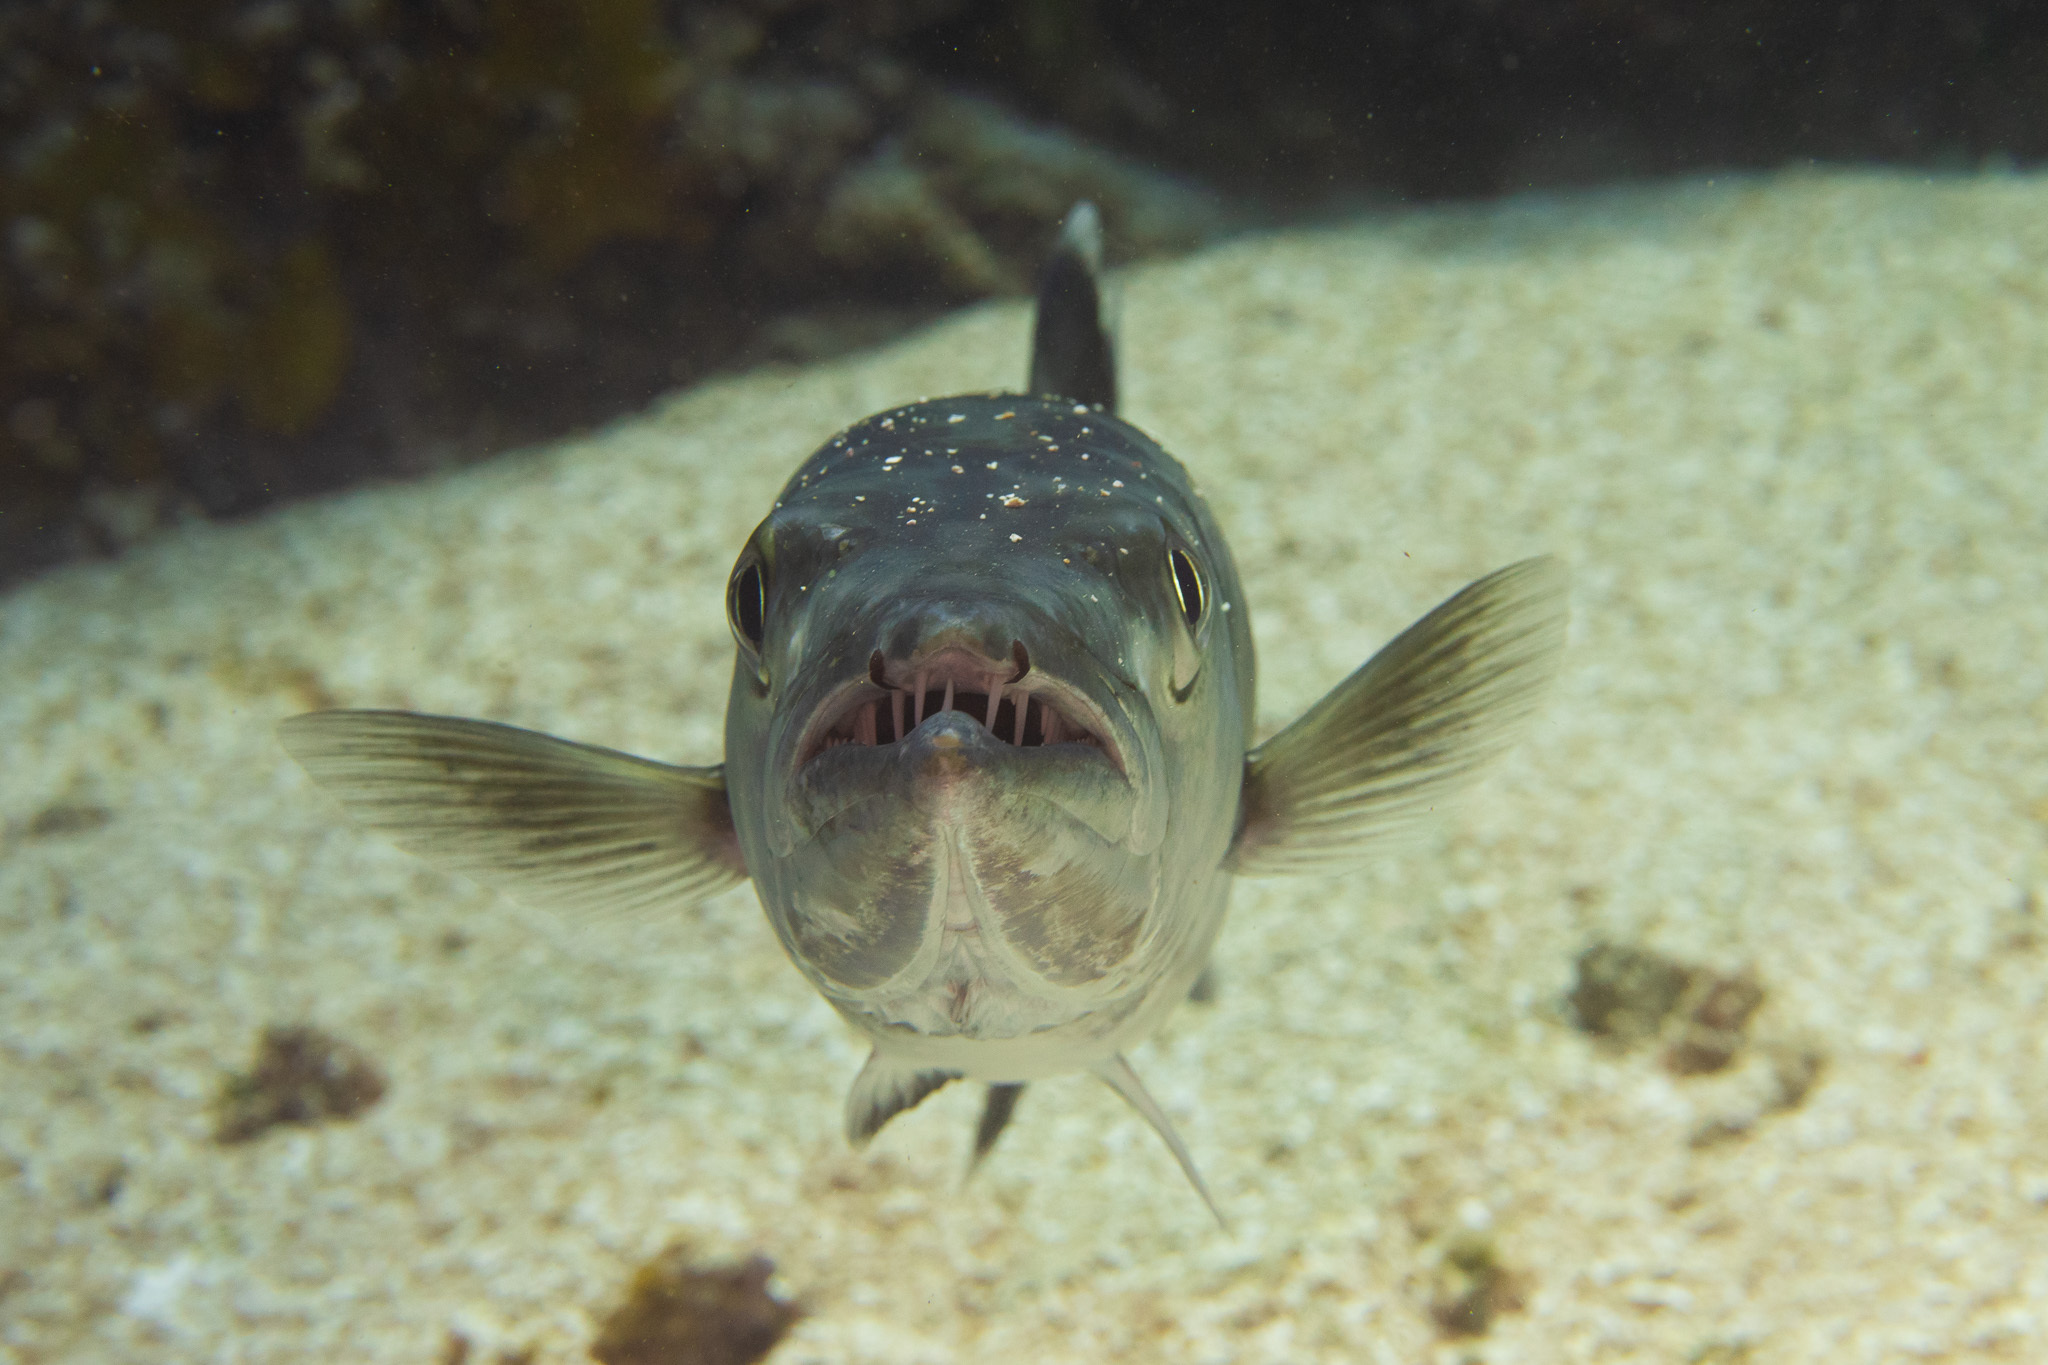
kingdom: Animalia
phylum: Chordata
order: Perciformes
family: Sphyraenidae
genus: Sphyraena
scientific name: Sphyraena barracuda
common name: Great barracuda
